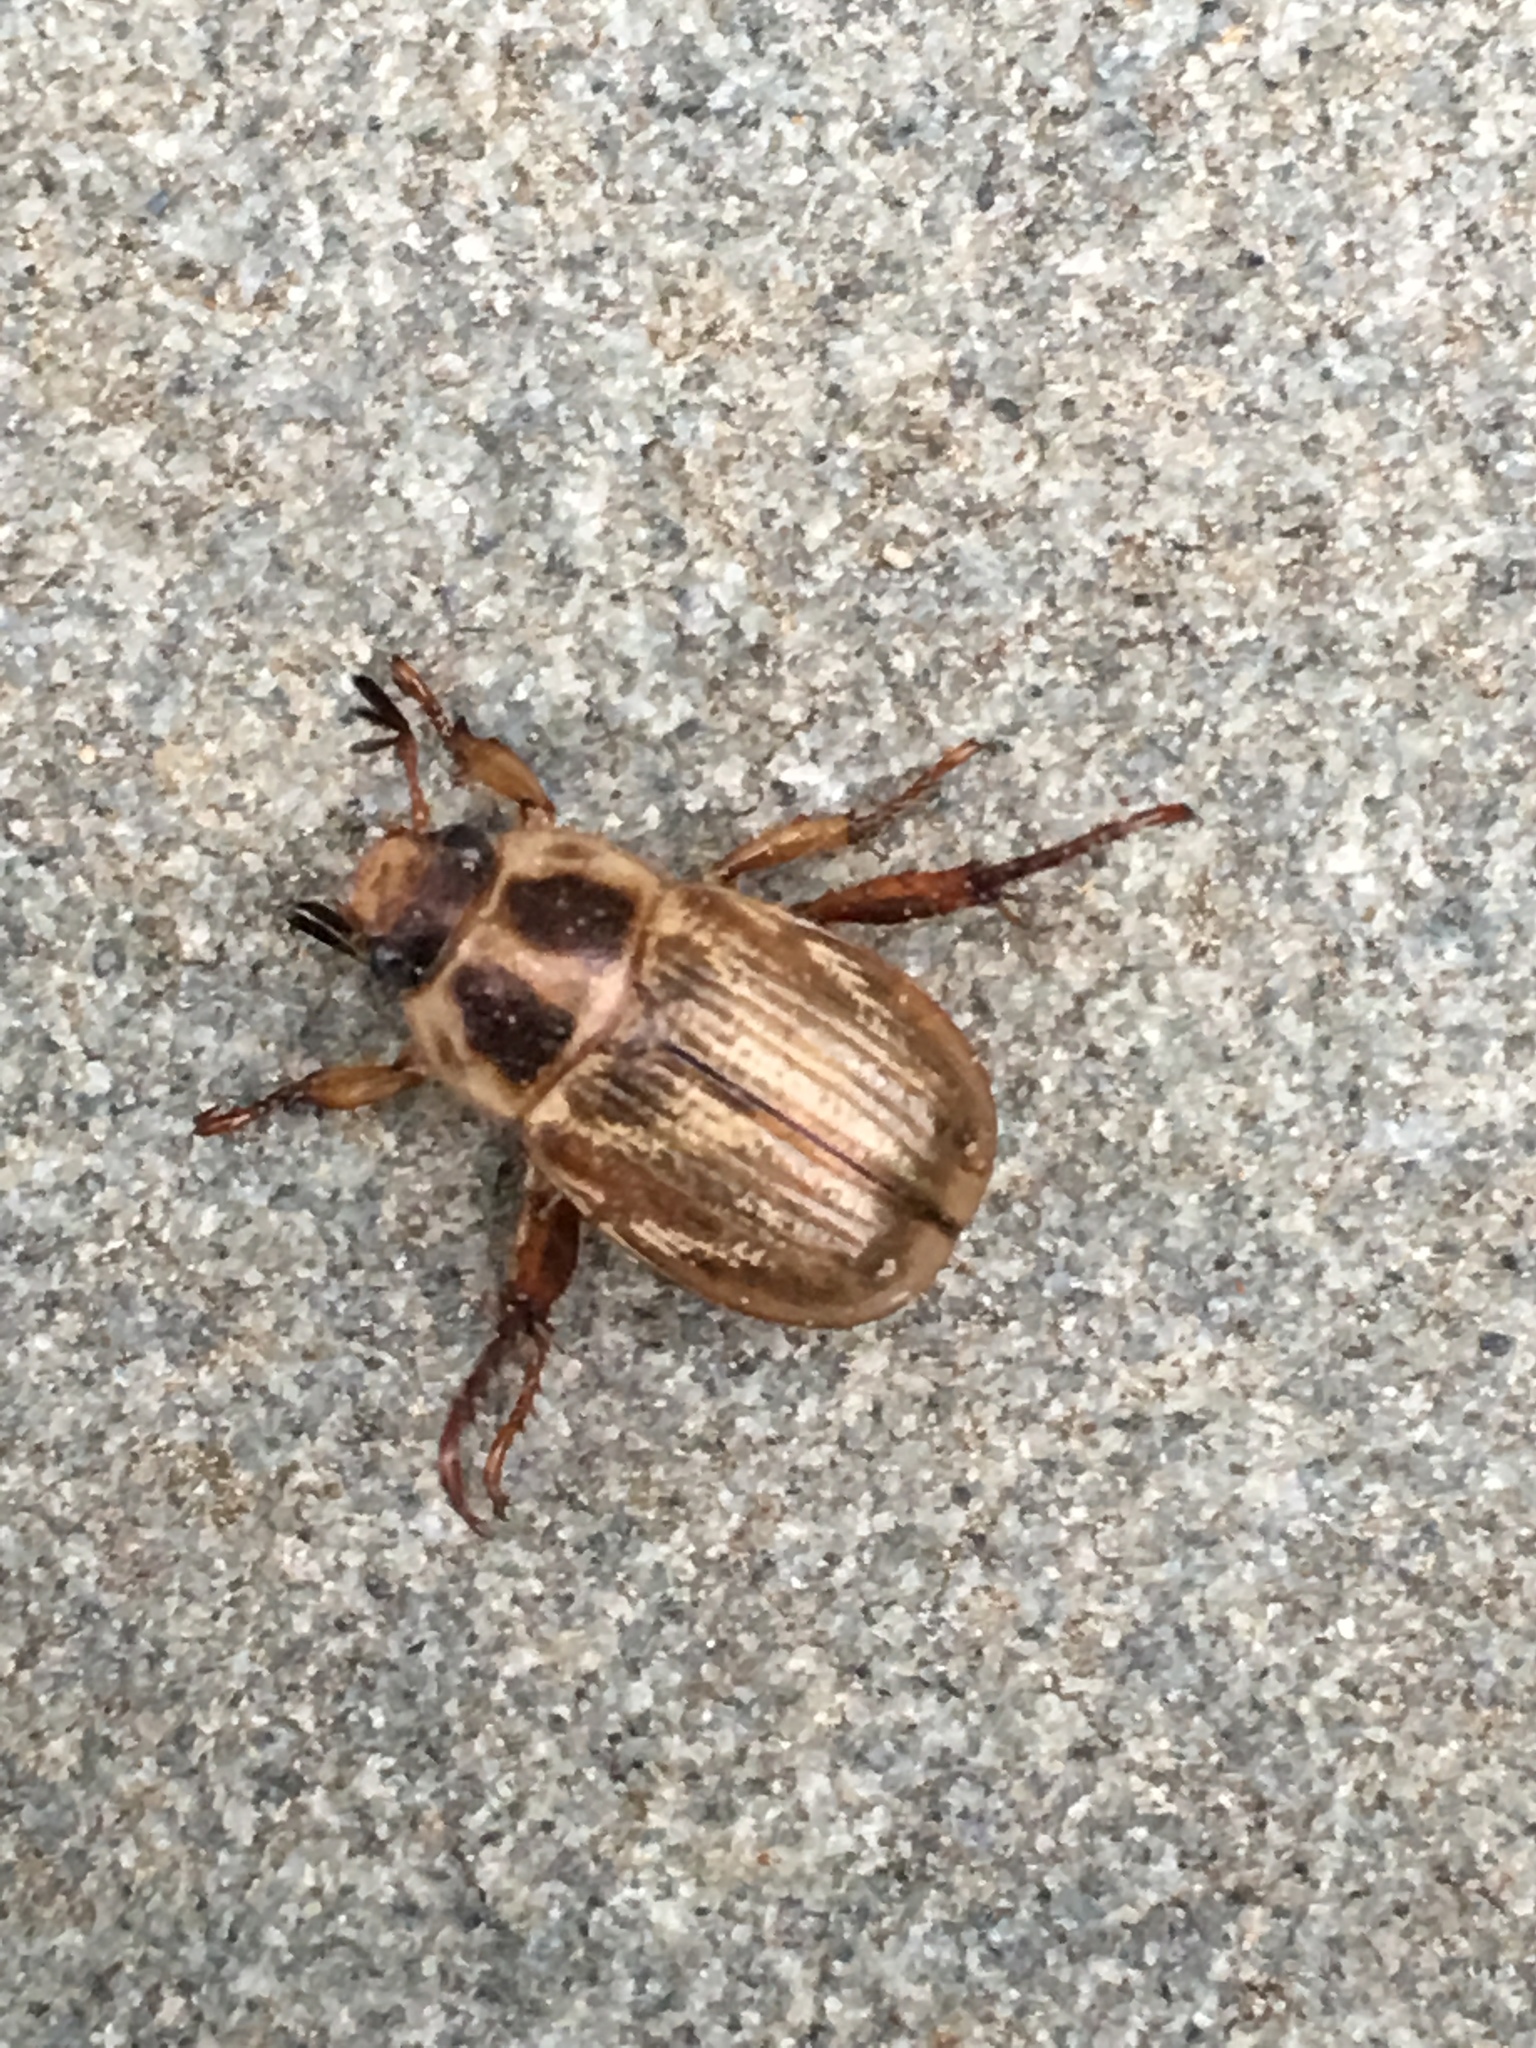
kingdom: Animalia
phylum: Arthropoda
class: Insecta
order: Coleoptera
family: Scarabaeidae
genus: Exomala
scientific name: Exomala orientalis
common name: Oriental beetle
